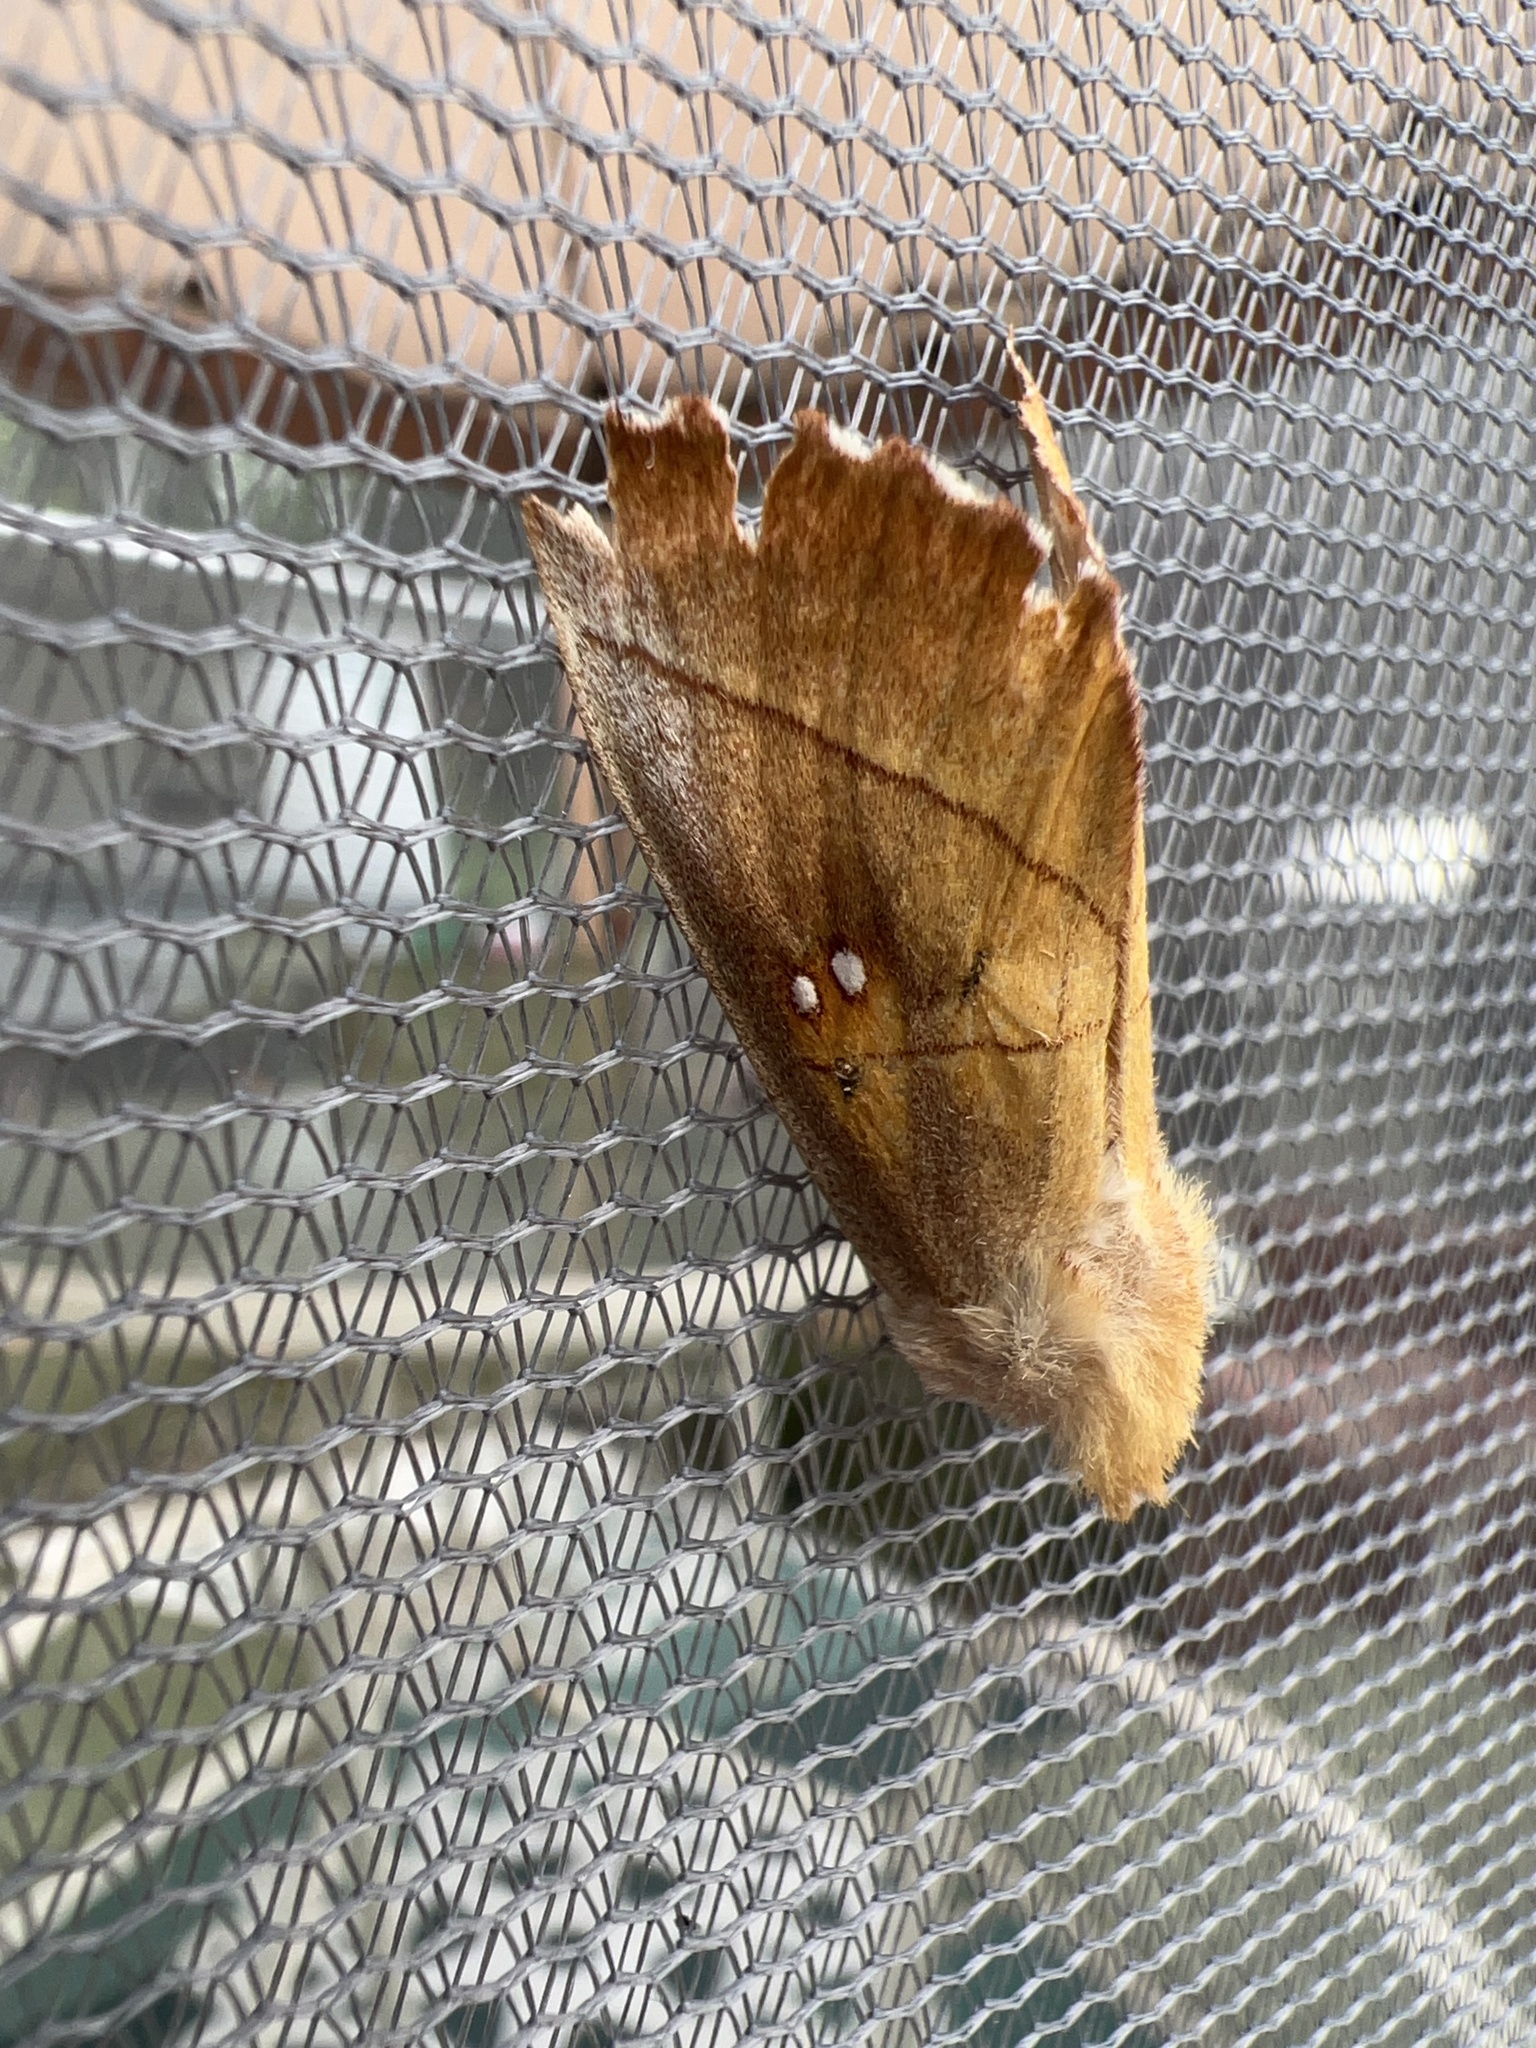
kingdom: Animalia
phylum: Arthropoda
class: Insecta
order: Lepidoptera
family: Notodontidae
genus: Nadata
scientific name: Nadata gibbosa
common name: White-dotted prominent
